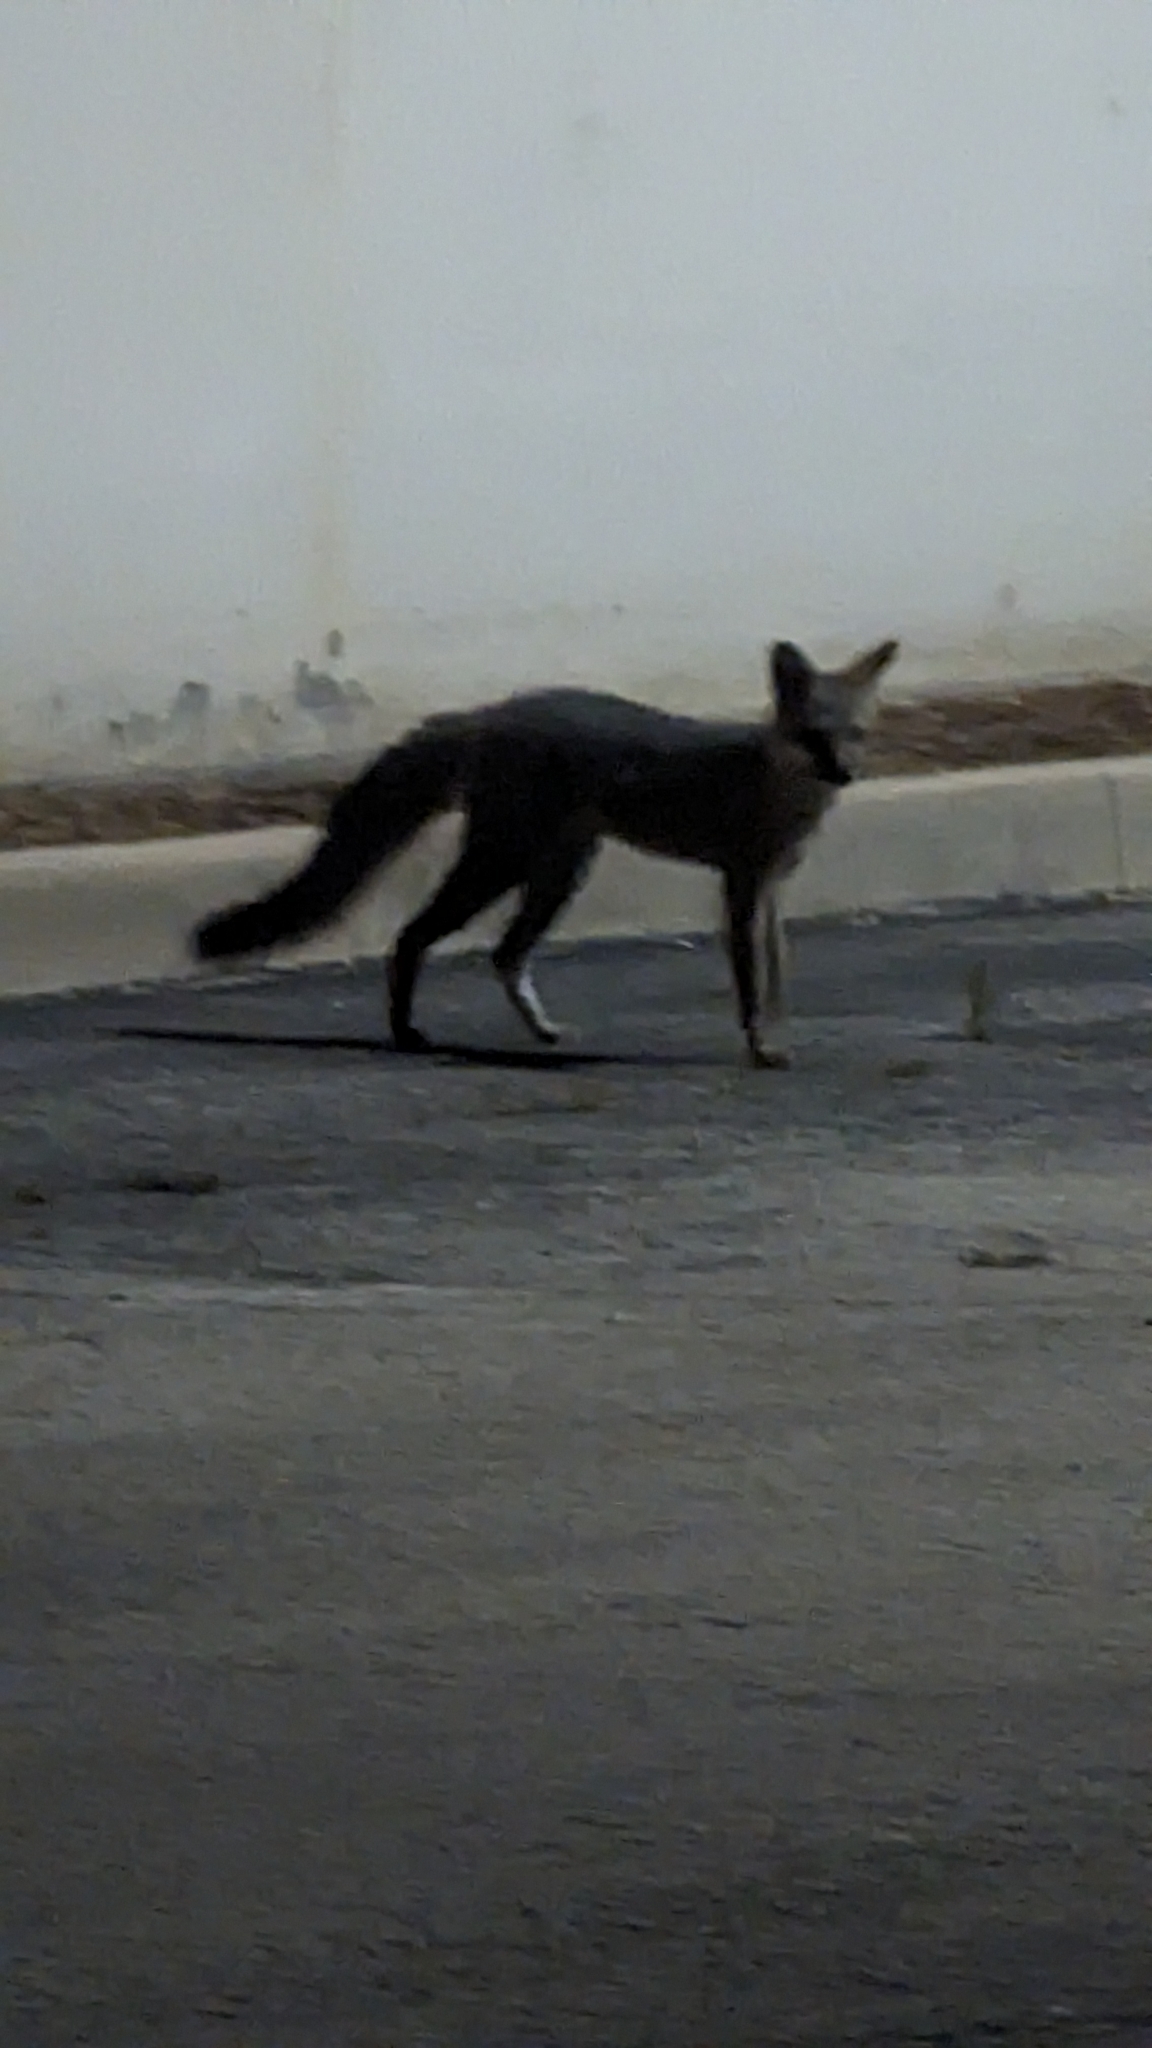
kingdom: Animalia
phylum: Chordata
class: Mammalia
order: Carnivora
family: Canidae
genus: Urocyon
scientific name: Urocyon cinereoargenteus
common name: Gray fox
